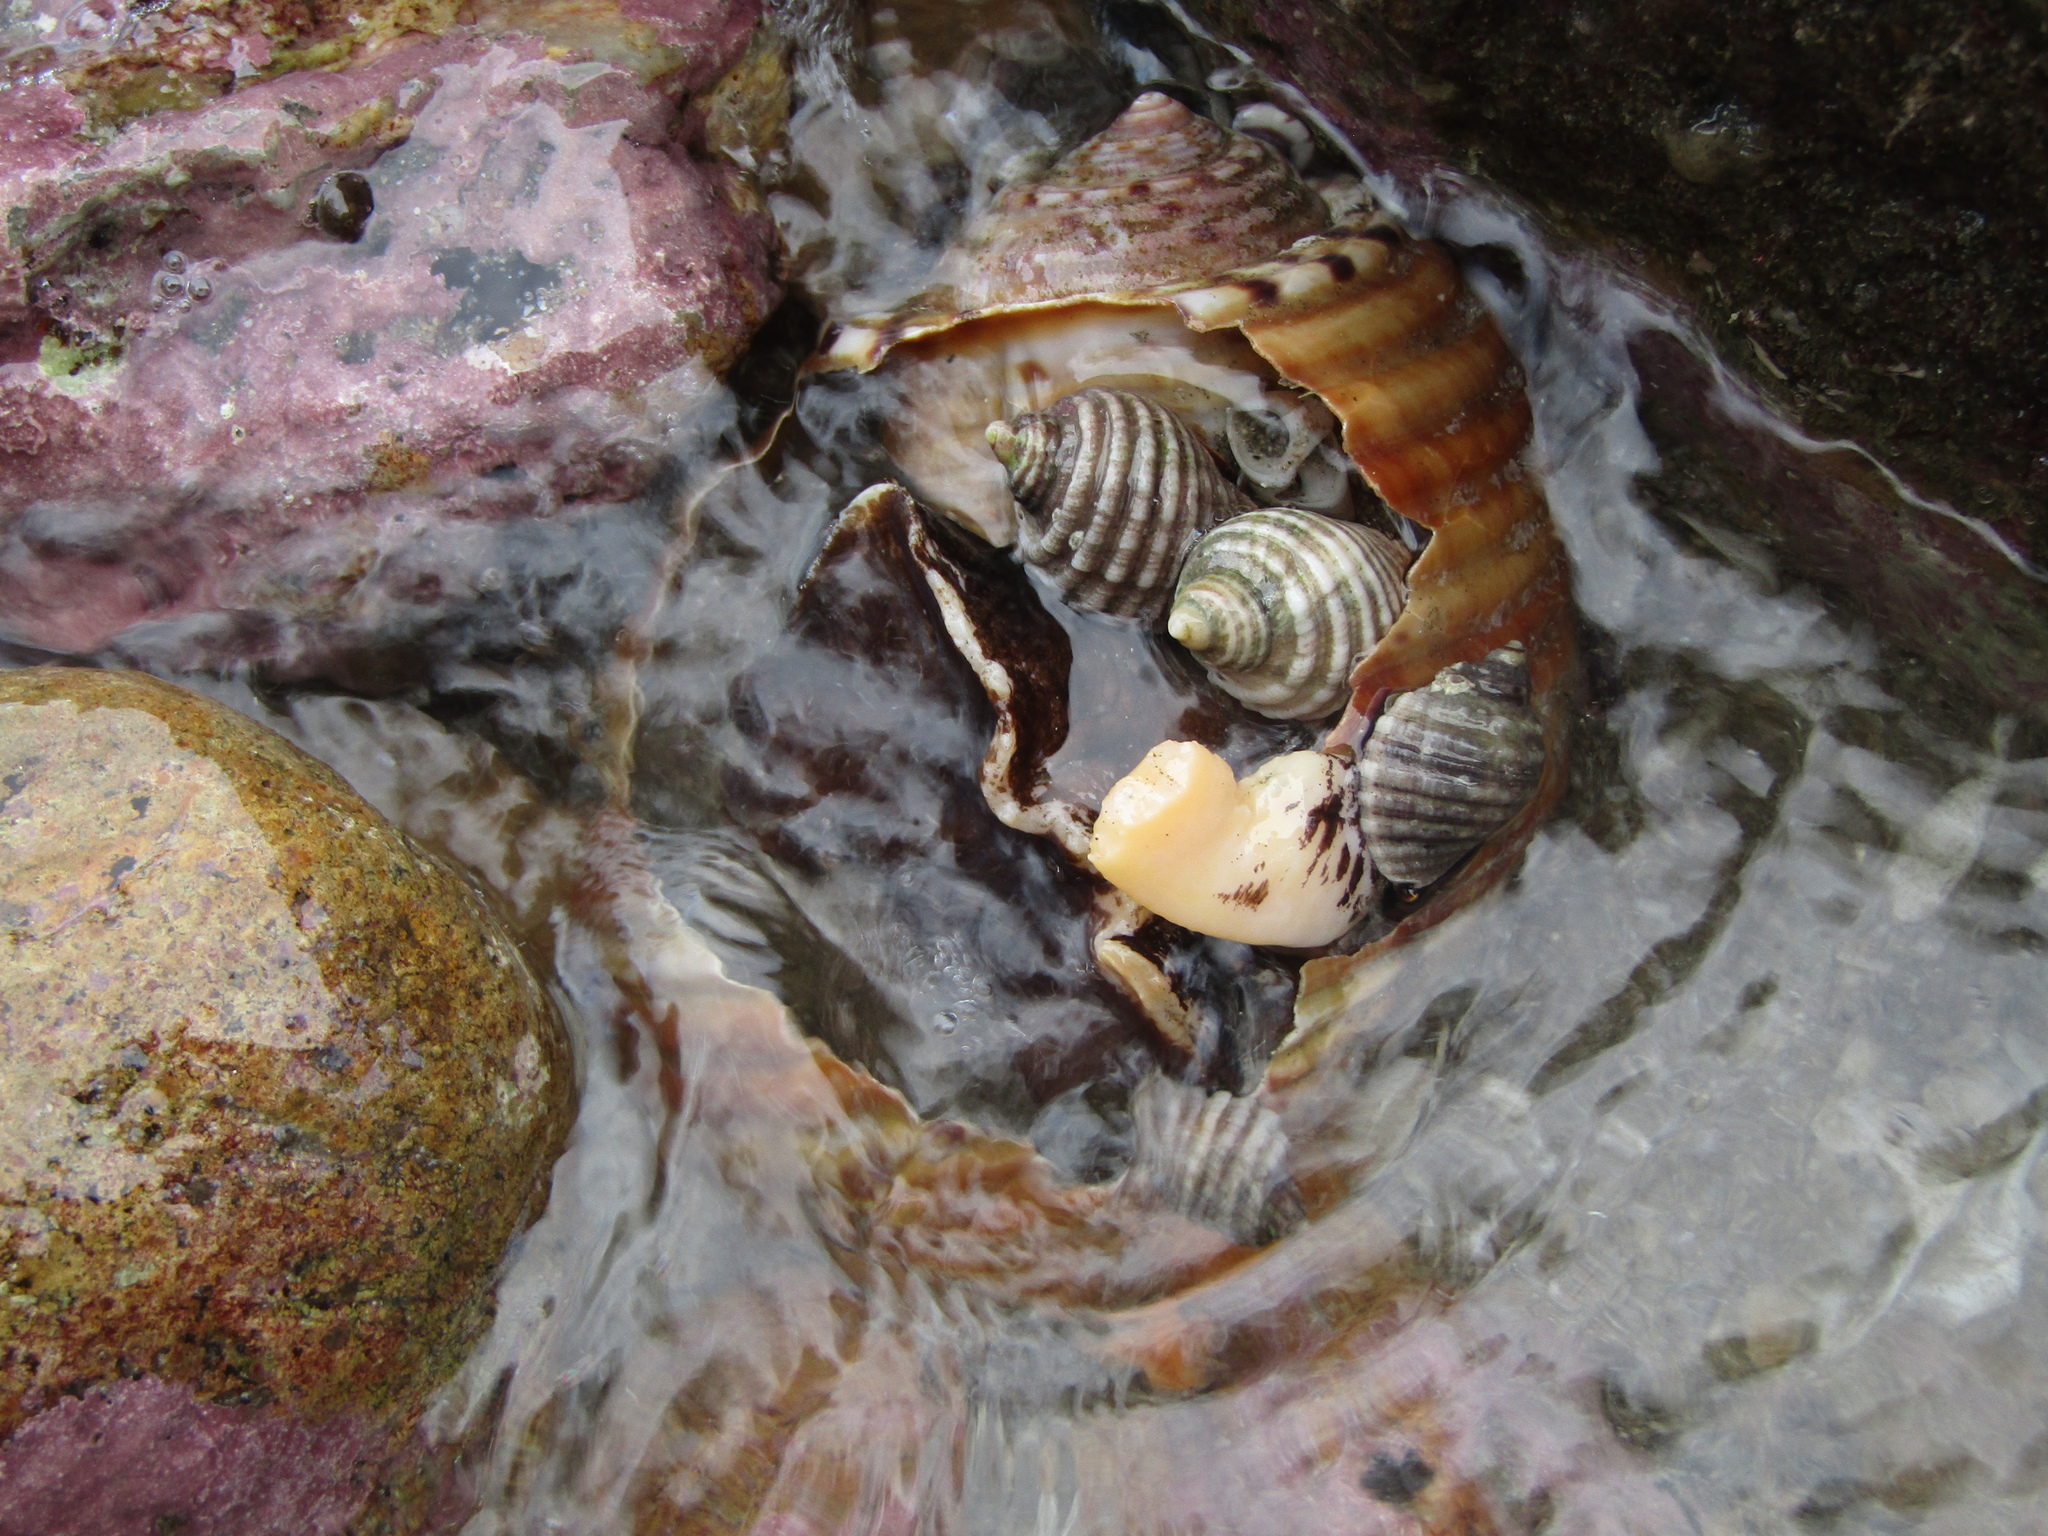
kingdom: Animalia
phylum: Mollusca
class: Gastropoda
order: Neogastropoda
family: Muricidae
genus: Dicathais
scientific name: Dicathais orbita
